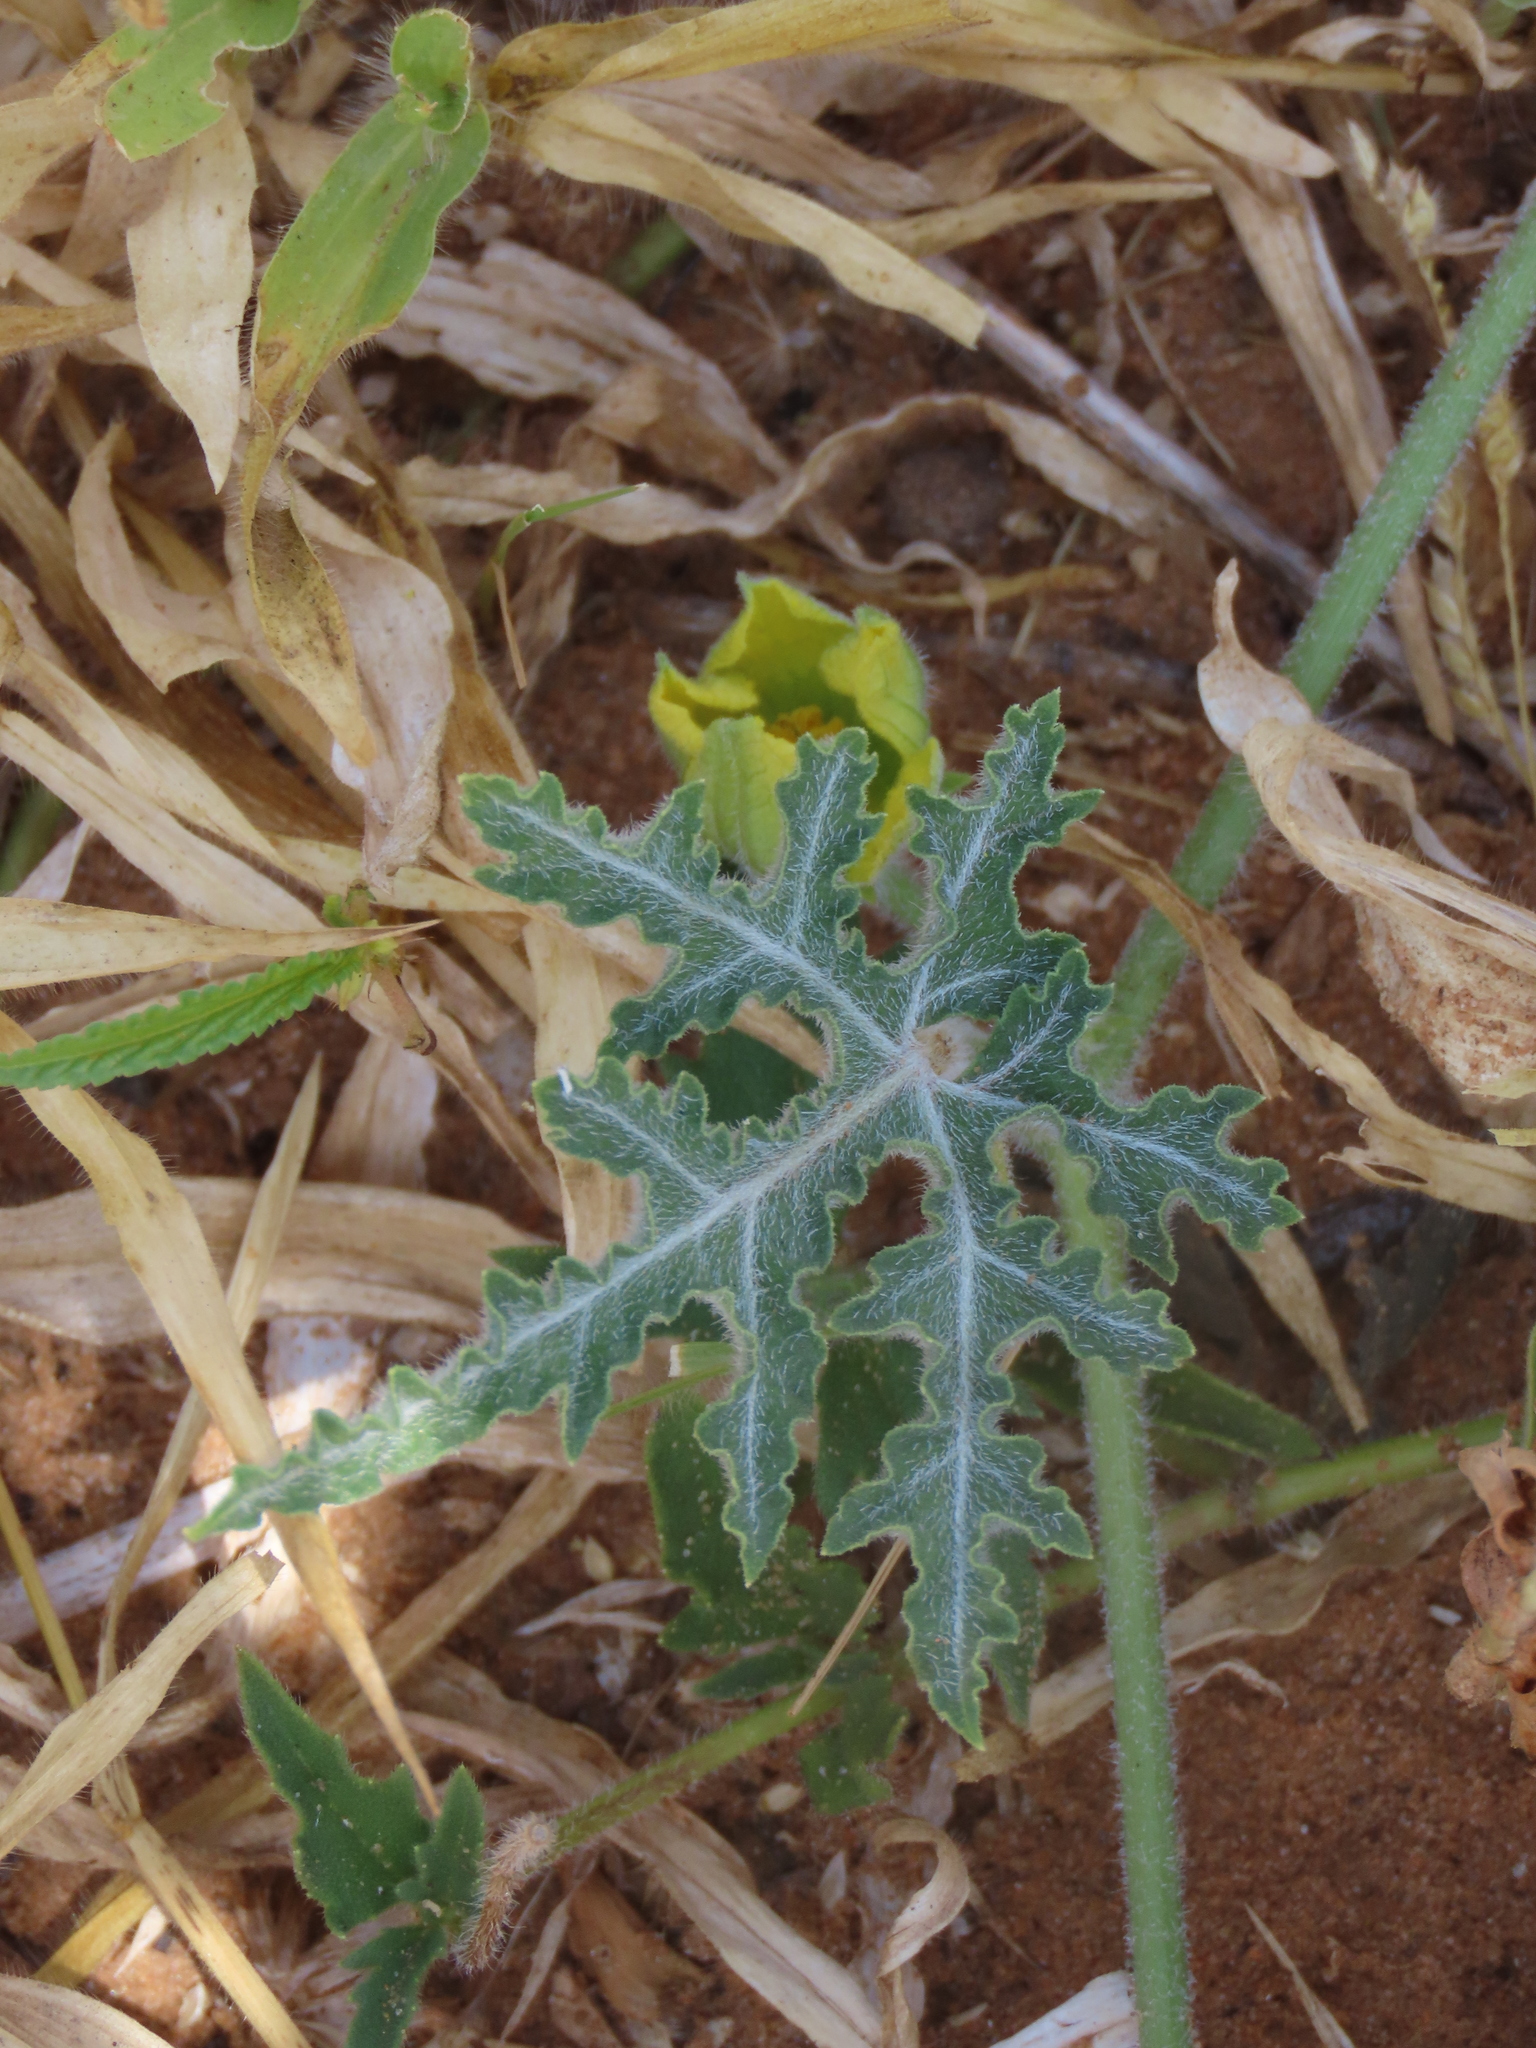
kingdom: Plantae
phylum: Tracheophyta
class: Magnoliopsida
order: Cucurbitales
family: Cucurbitaceae
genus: Citrullus
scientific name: Citrullus naudinianus
